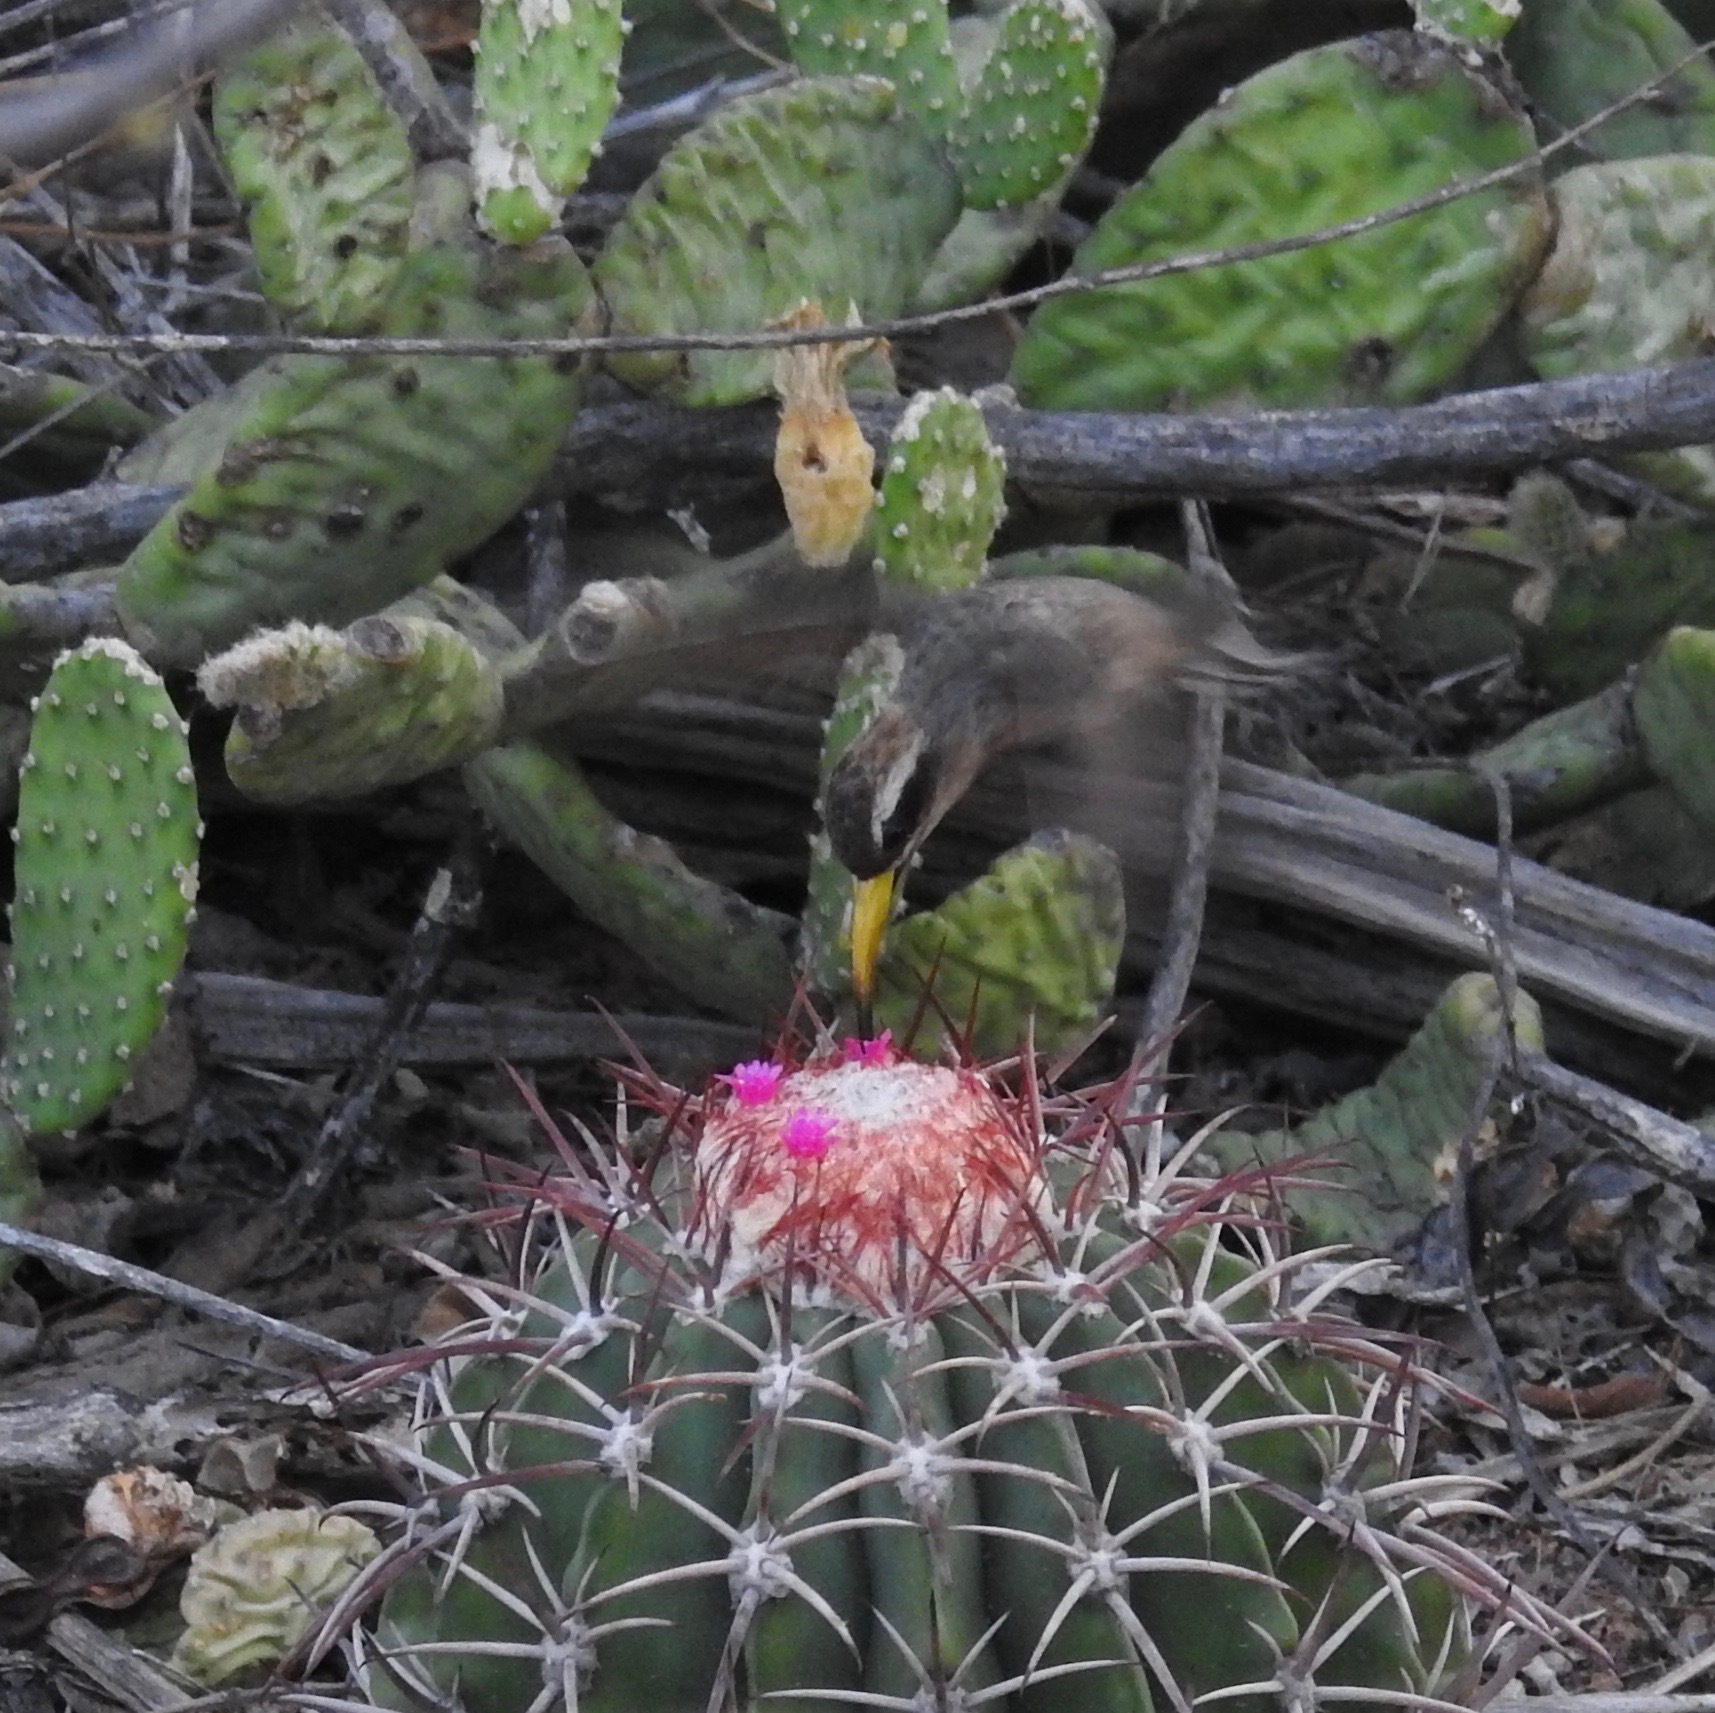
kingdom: Animalia
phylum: Chordata
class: Aves
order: Apodiformes
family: Trochilidae
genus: Anopetia
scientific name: Anopetia gounellei
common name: Broad-tipped hermit
